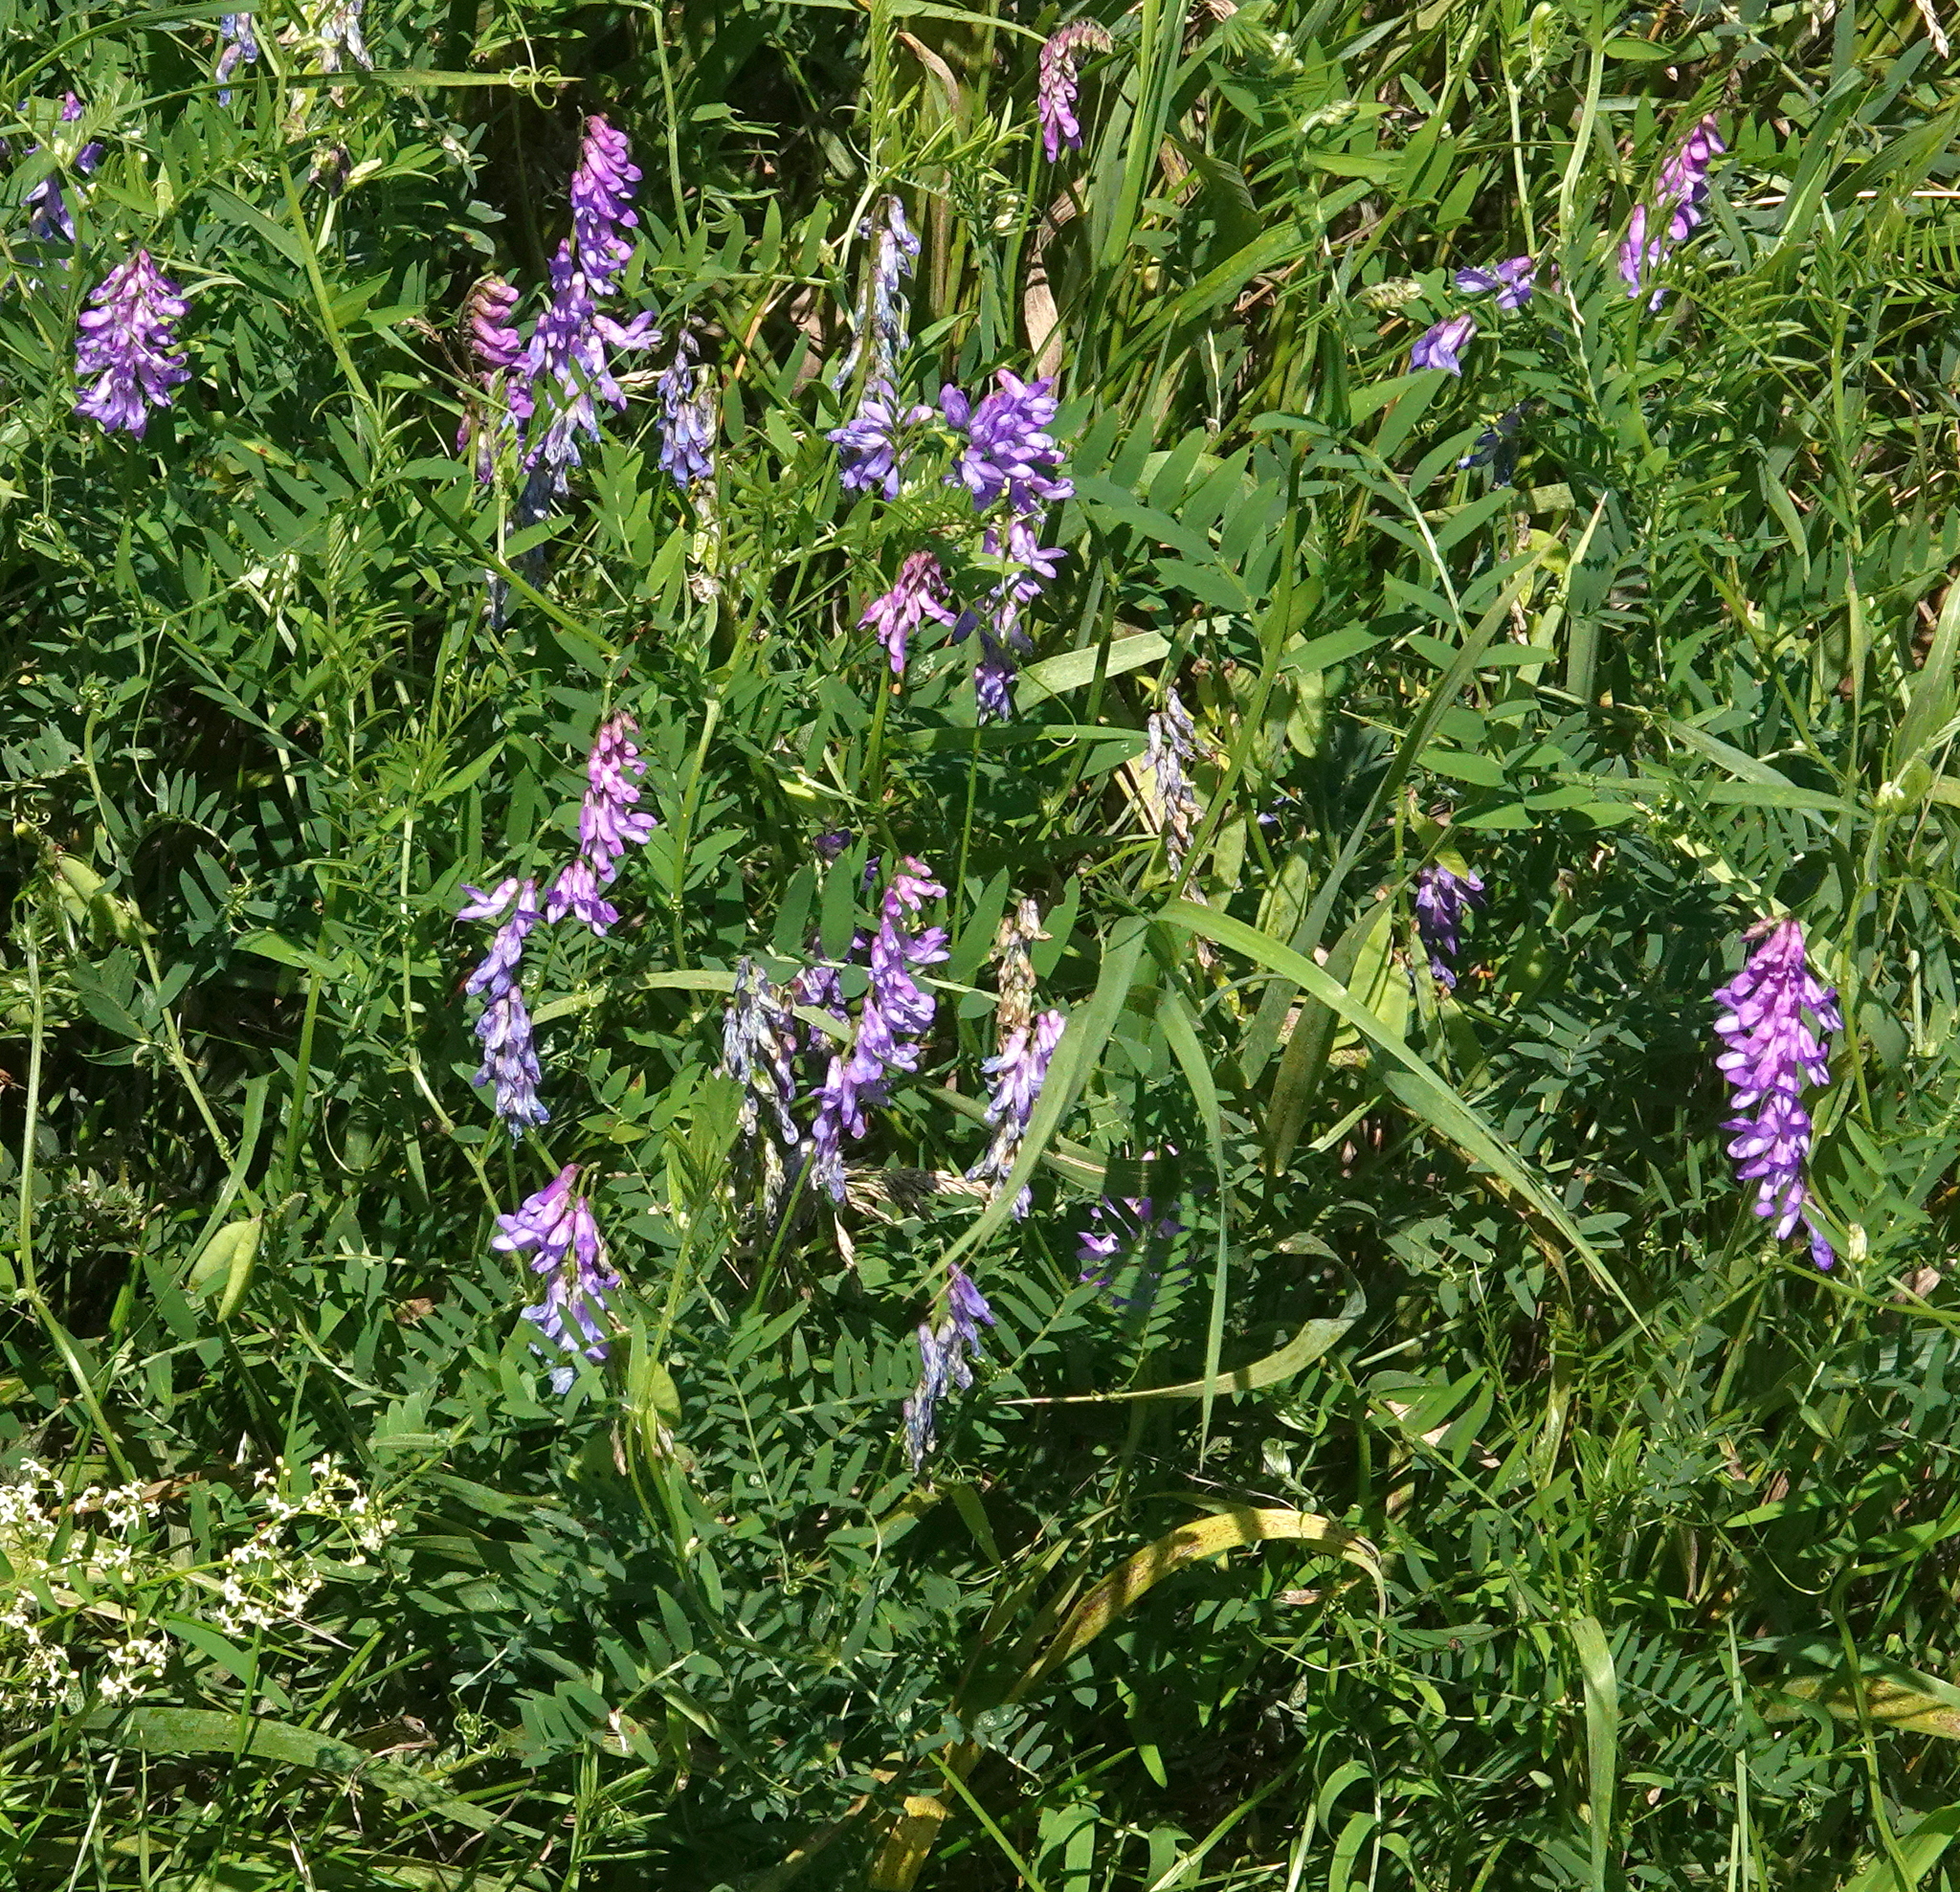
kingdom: Plantae
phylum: Tracheophyta
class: Magnoliopsida
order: Fabales
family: Fabaceae
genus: Vicia
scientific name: Vicia cracca
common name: Bird vetch
